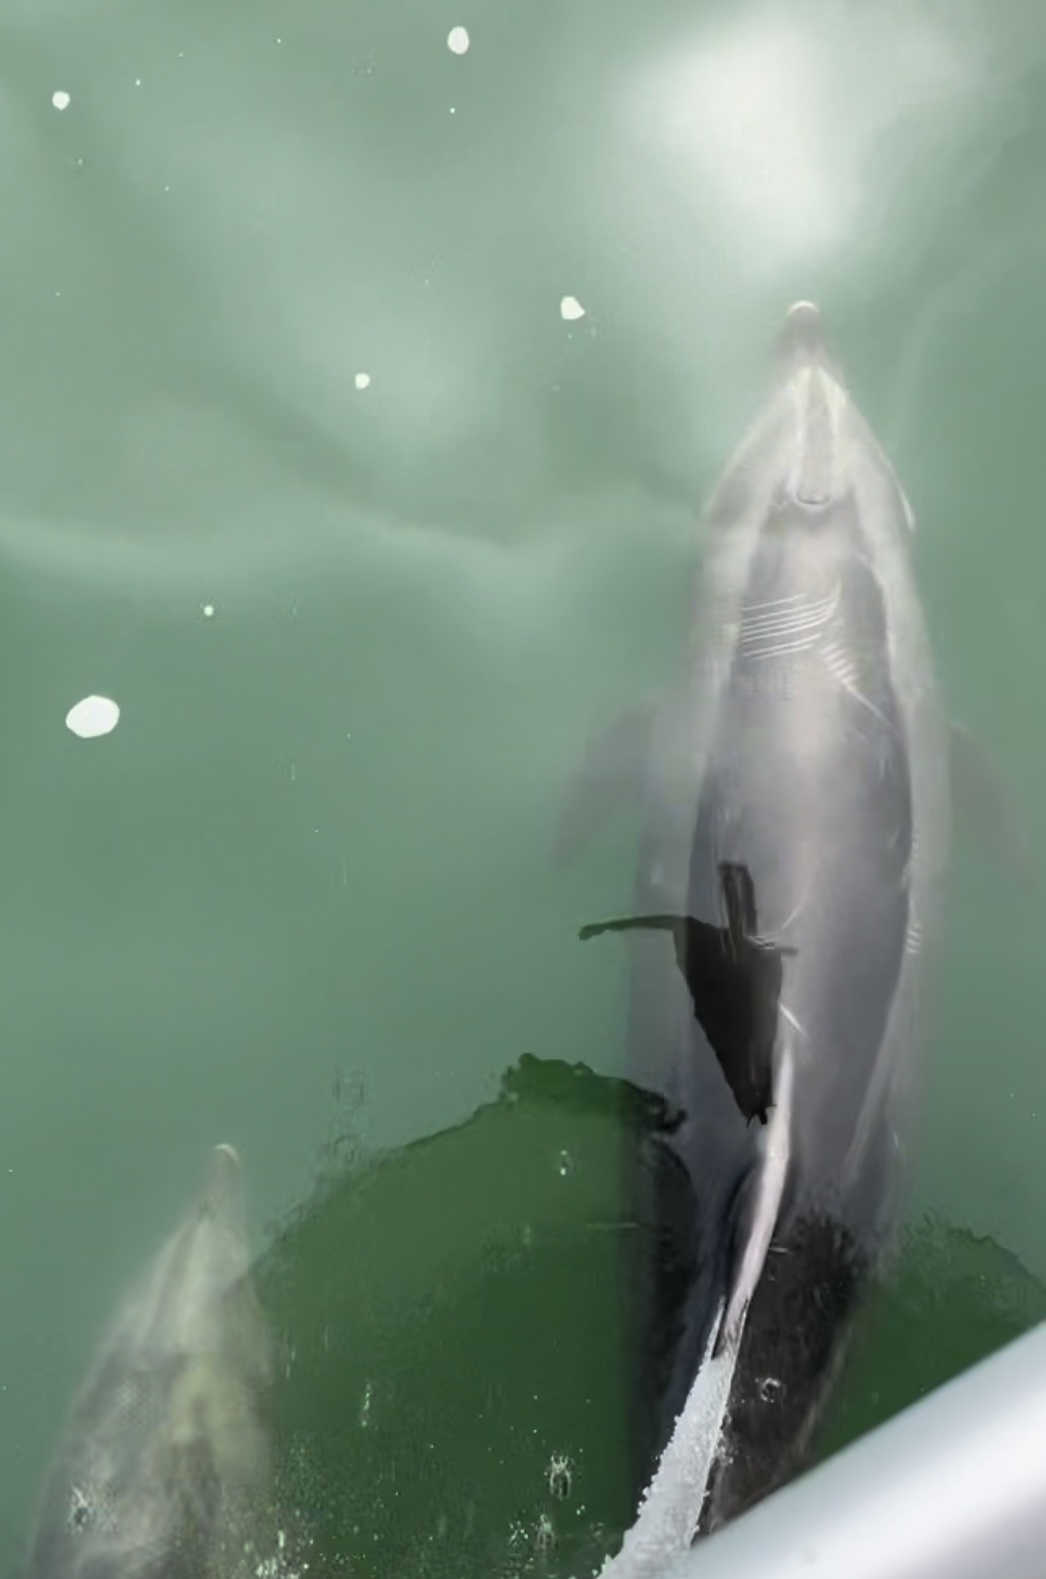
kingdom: Animalia
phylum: Chordata
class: Mammalia
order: Cetacea
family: Delphinidae
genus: Tursiops
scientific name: Tursiops truncatus
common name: Bottlenose dolphin
